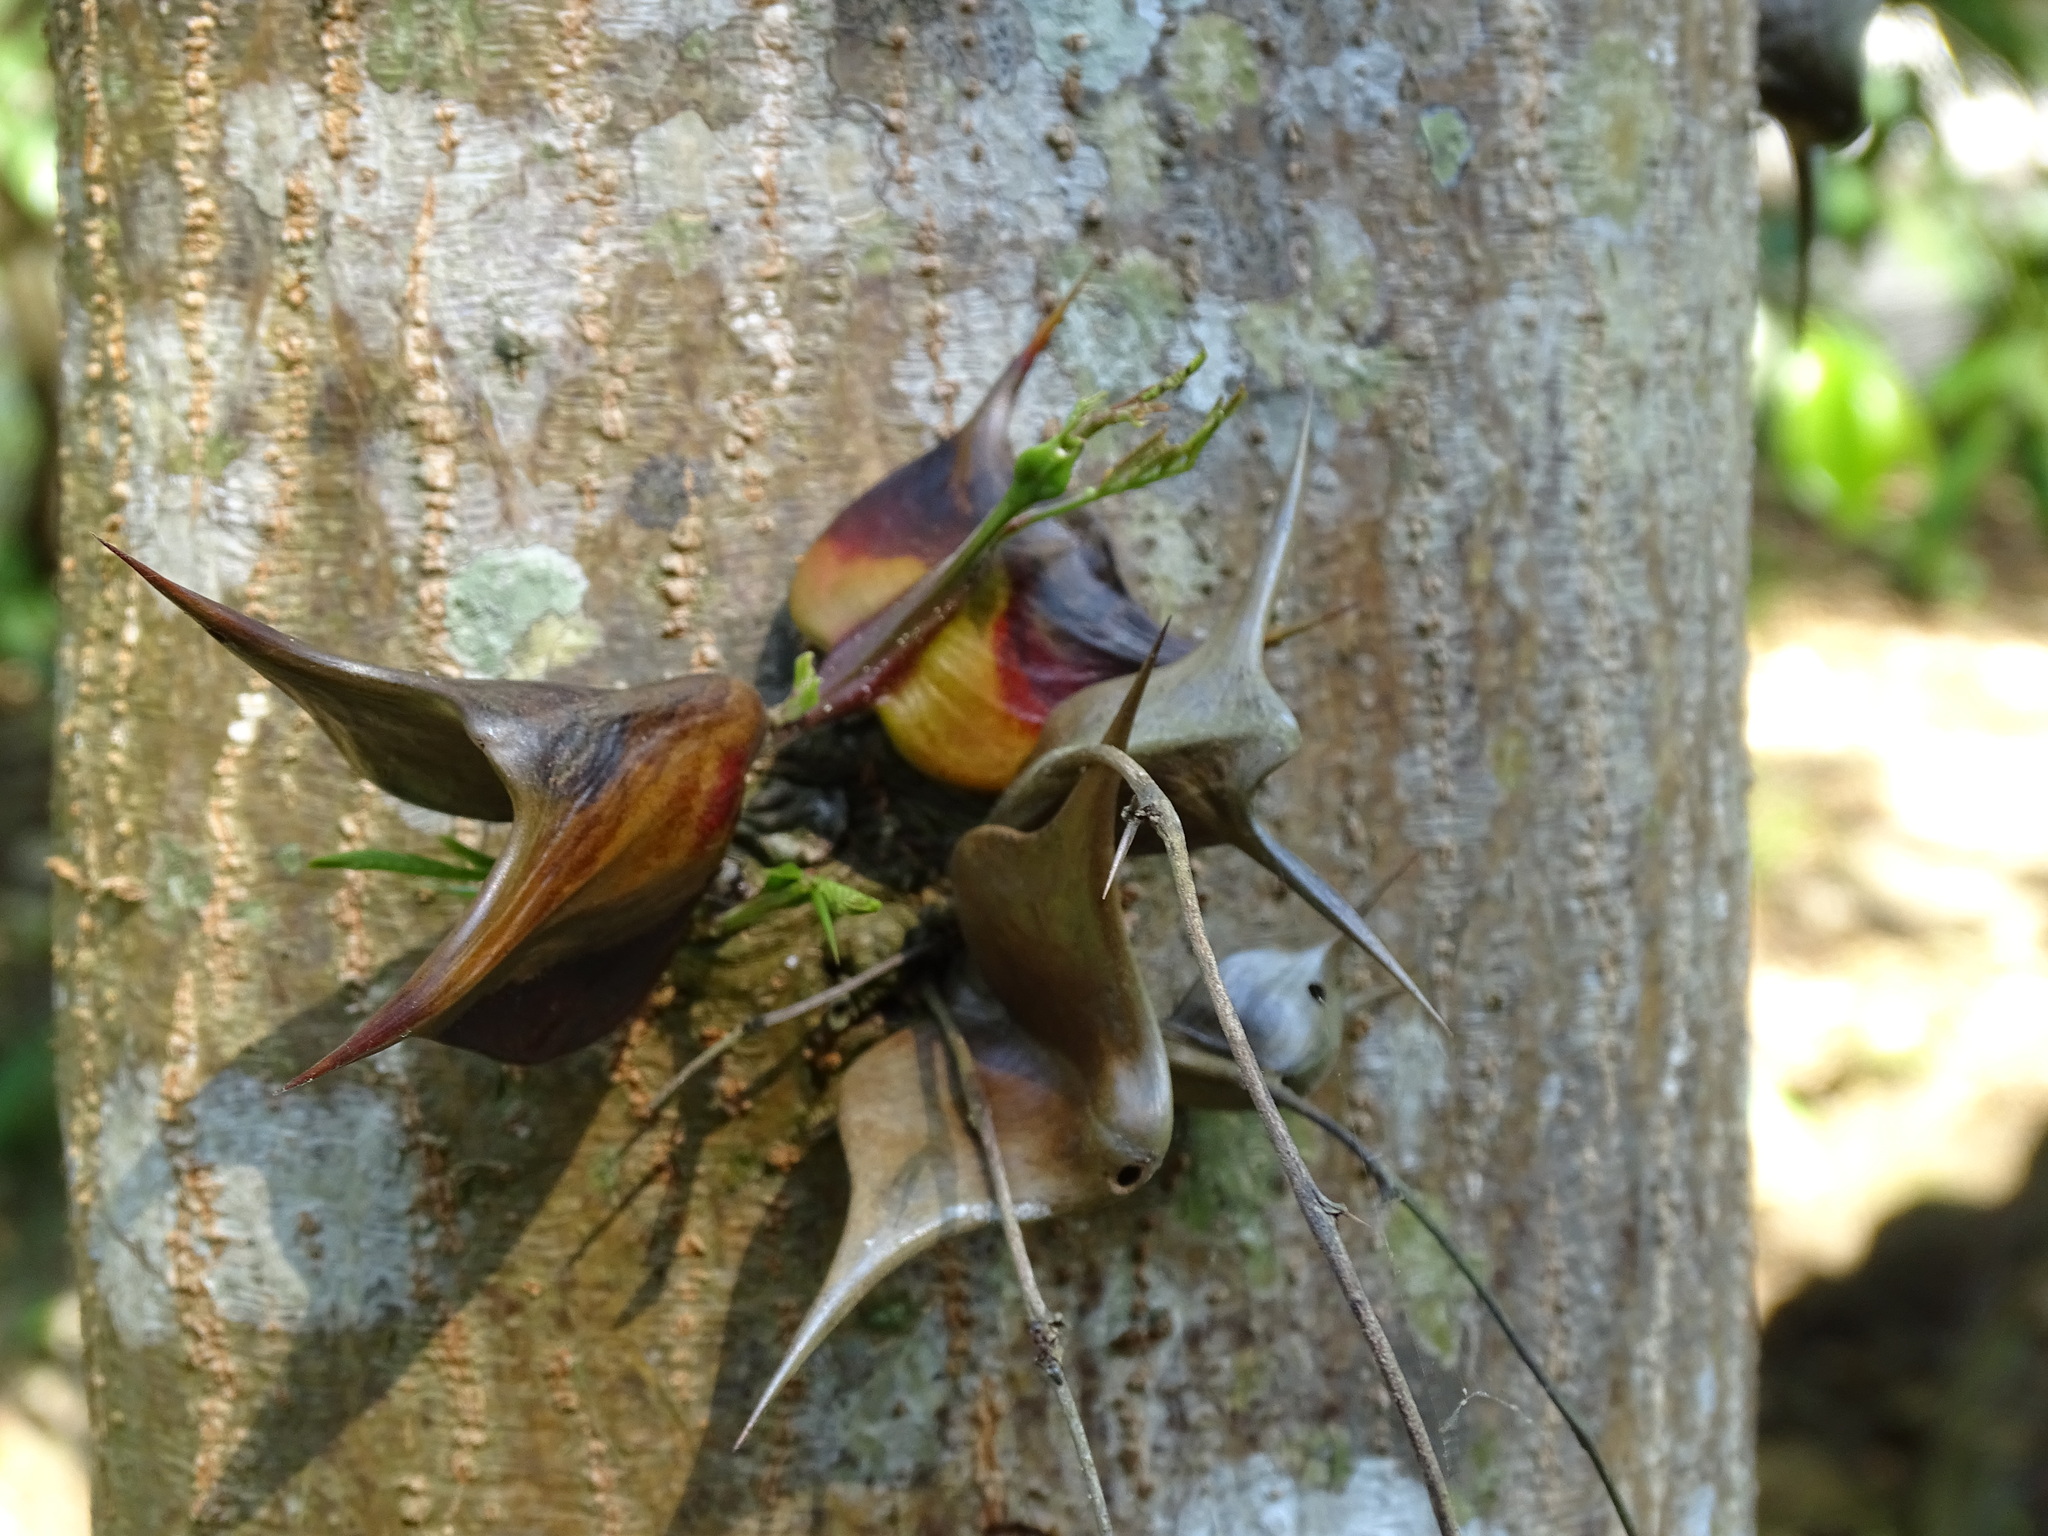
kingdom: Plantae
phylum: Tracheophyta
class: Magnoliopsida
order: Fabales
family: Fabaceae
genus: Vachellia
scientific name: Vachellia hindsii
